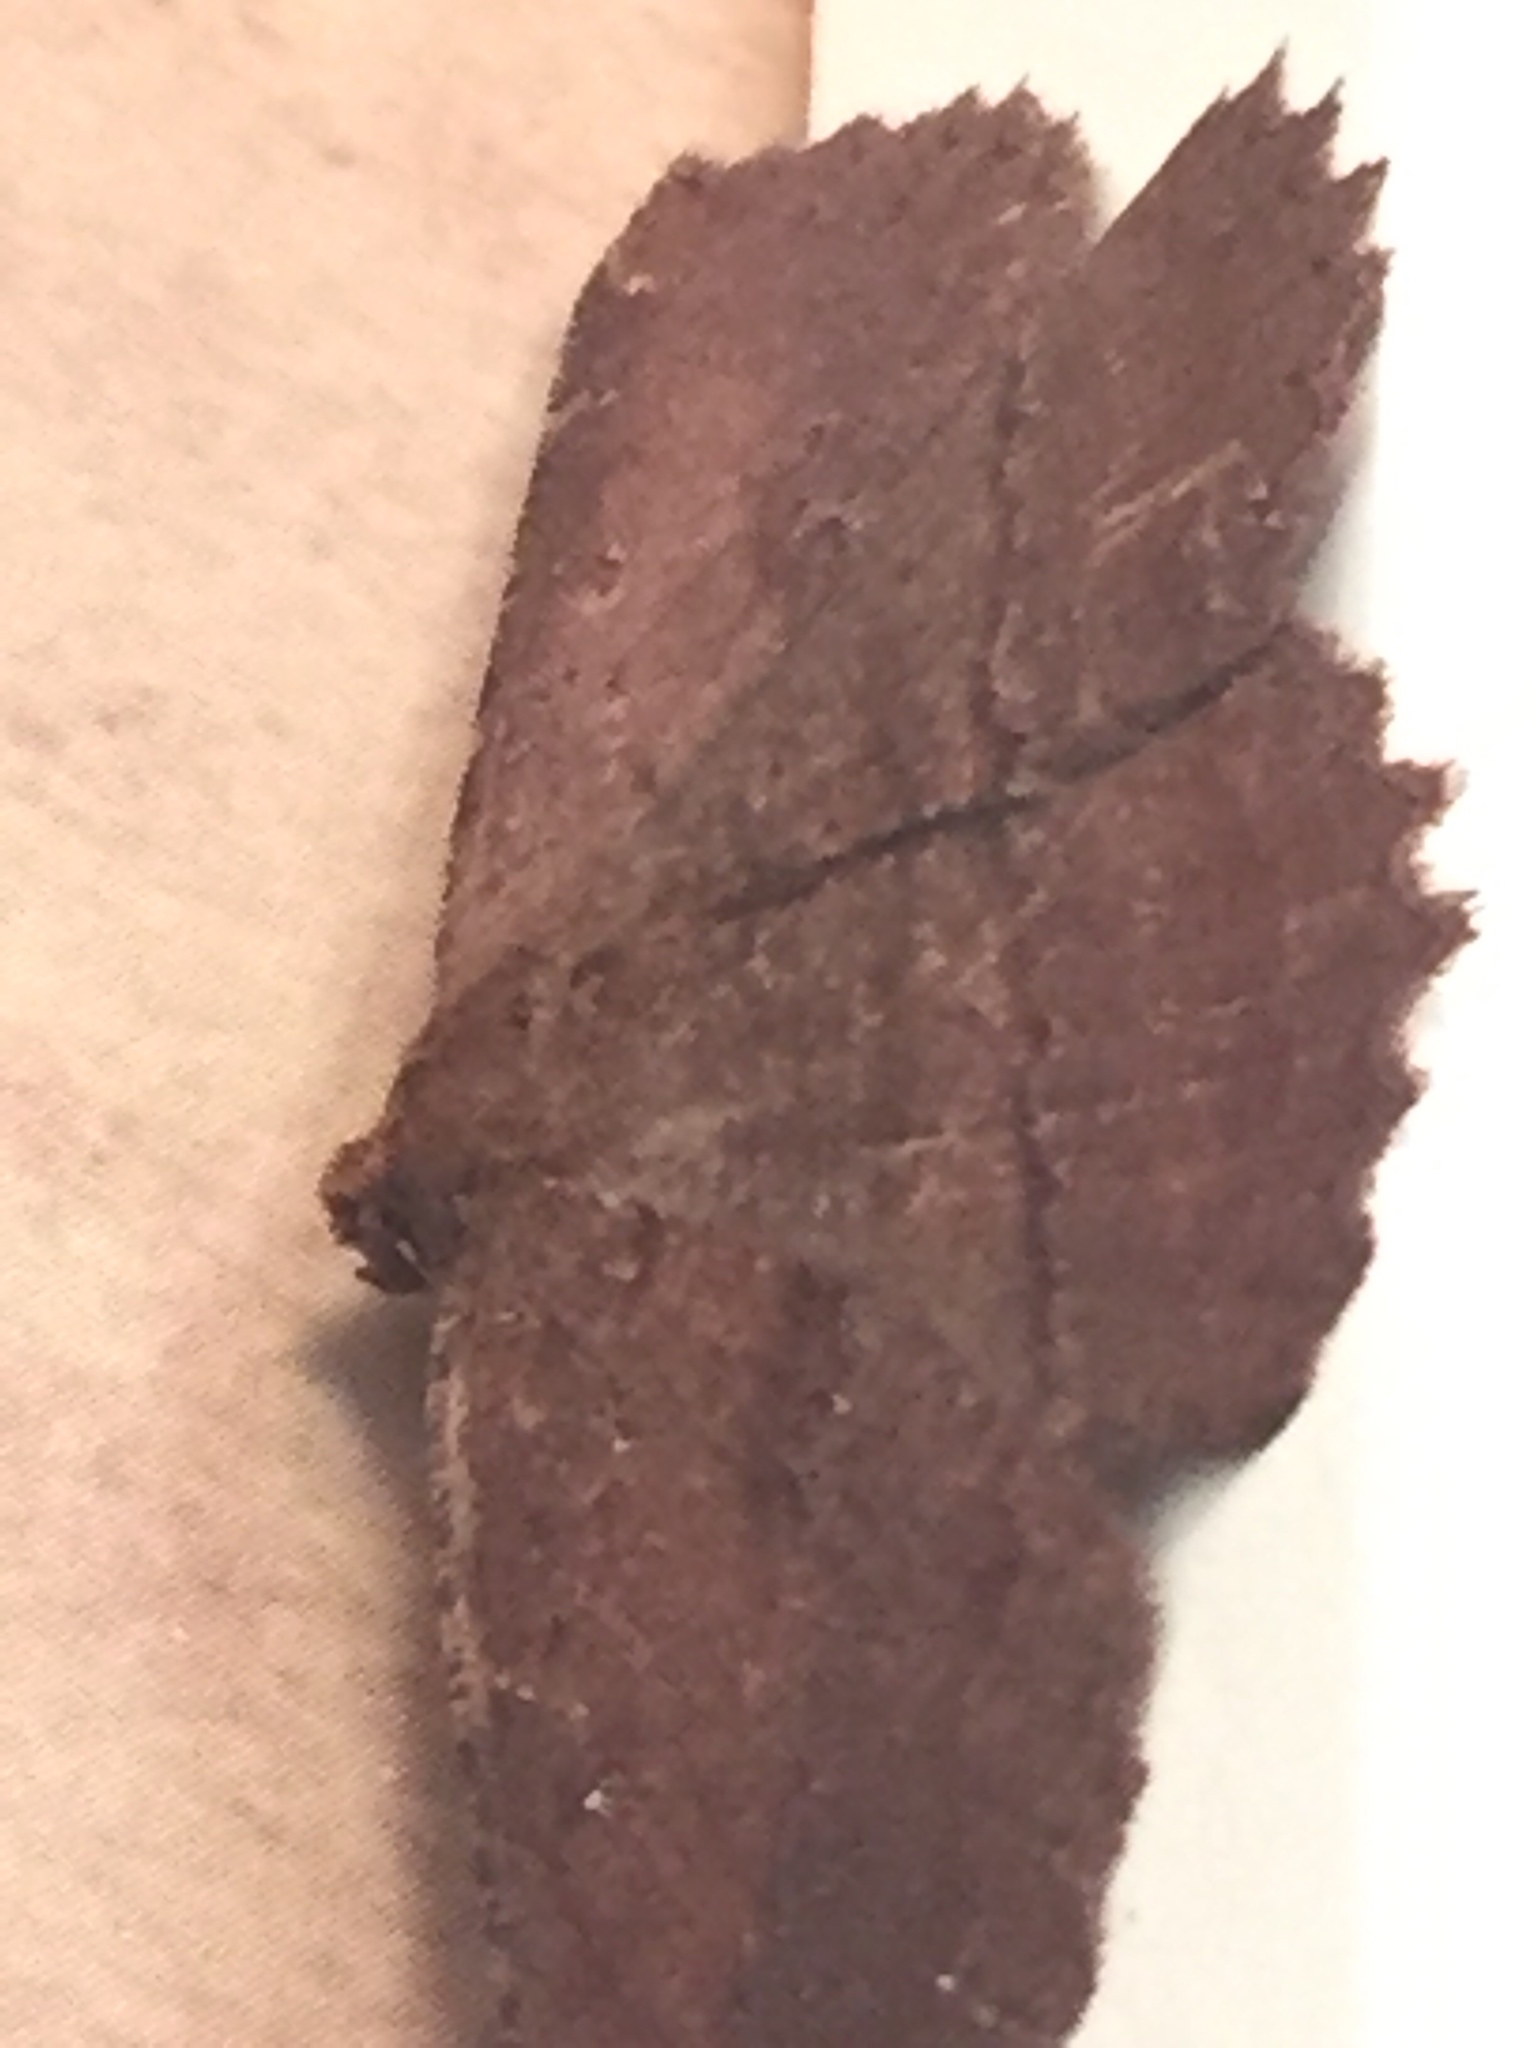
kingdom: Animalia
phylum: Arthropoda
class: Insecta
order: Lepidoptera
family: Geometridae
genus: Gellonia
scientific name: Gellonia pannularia
